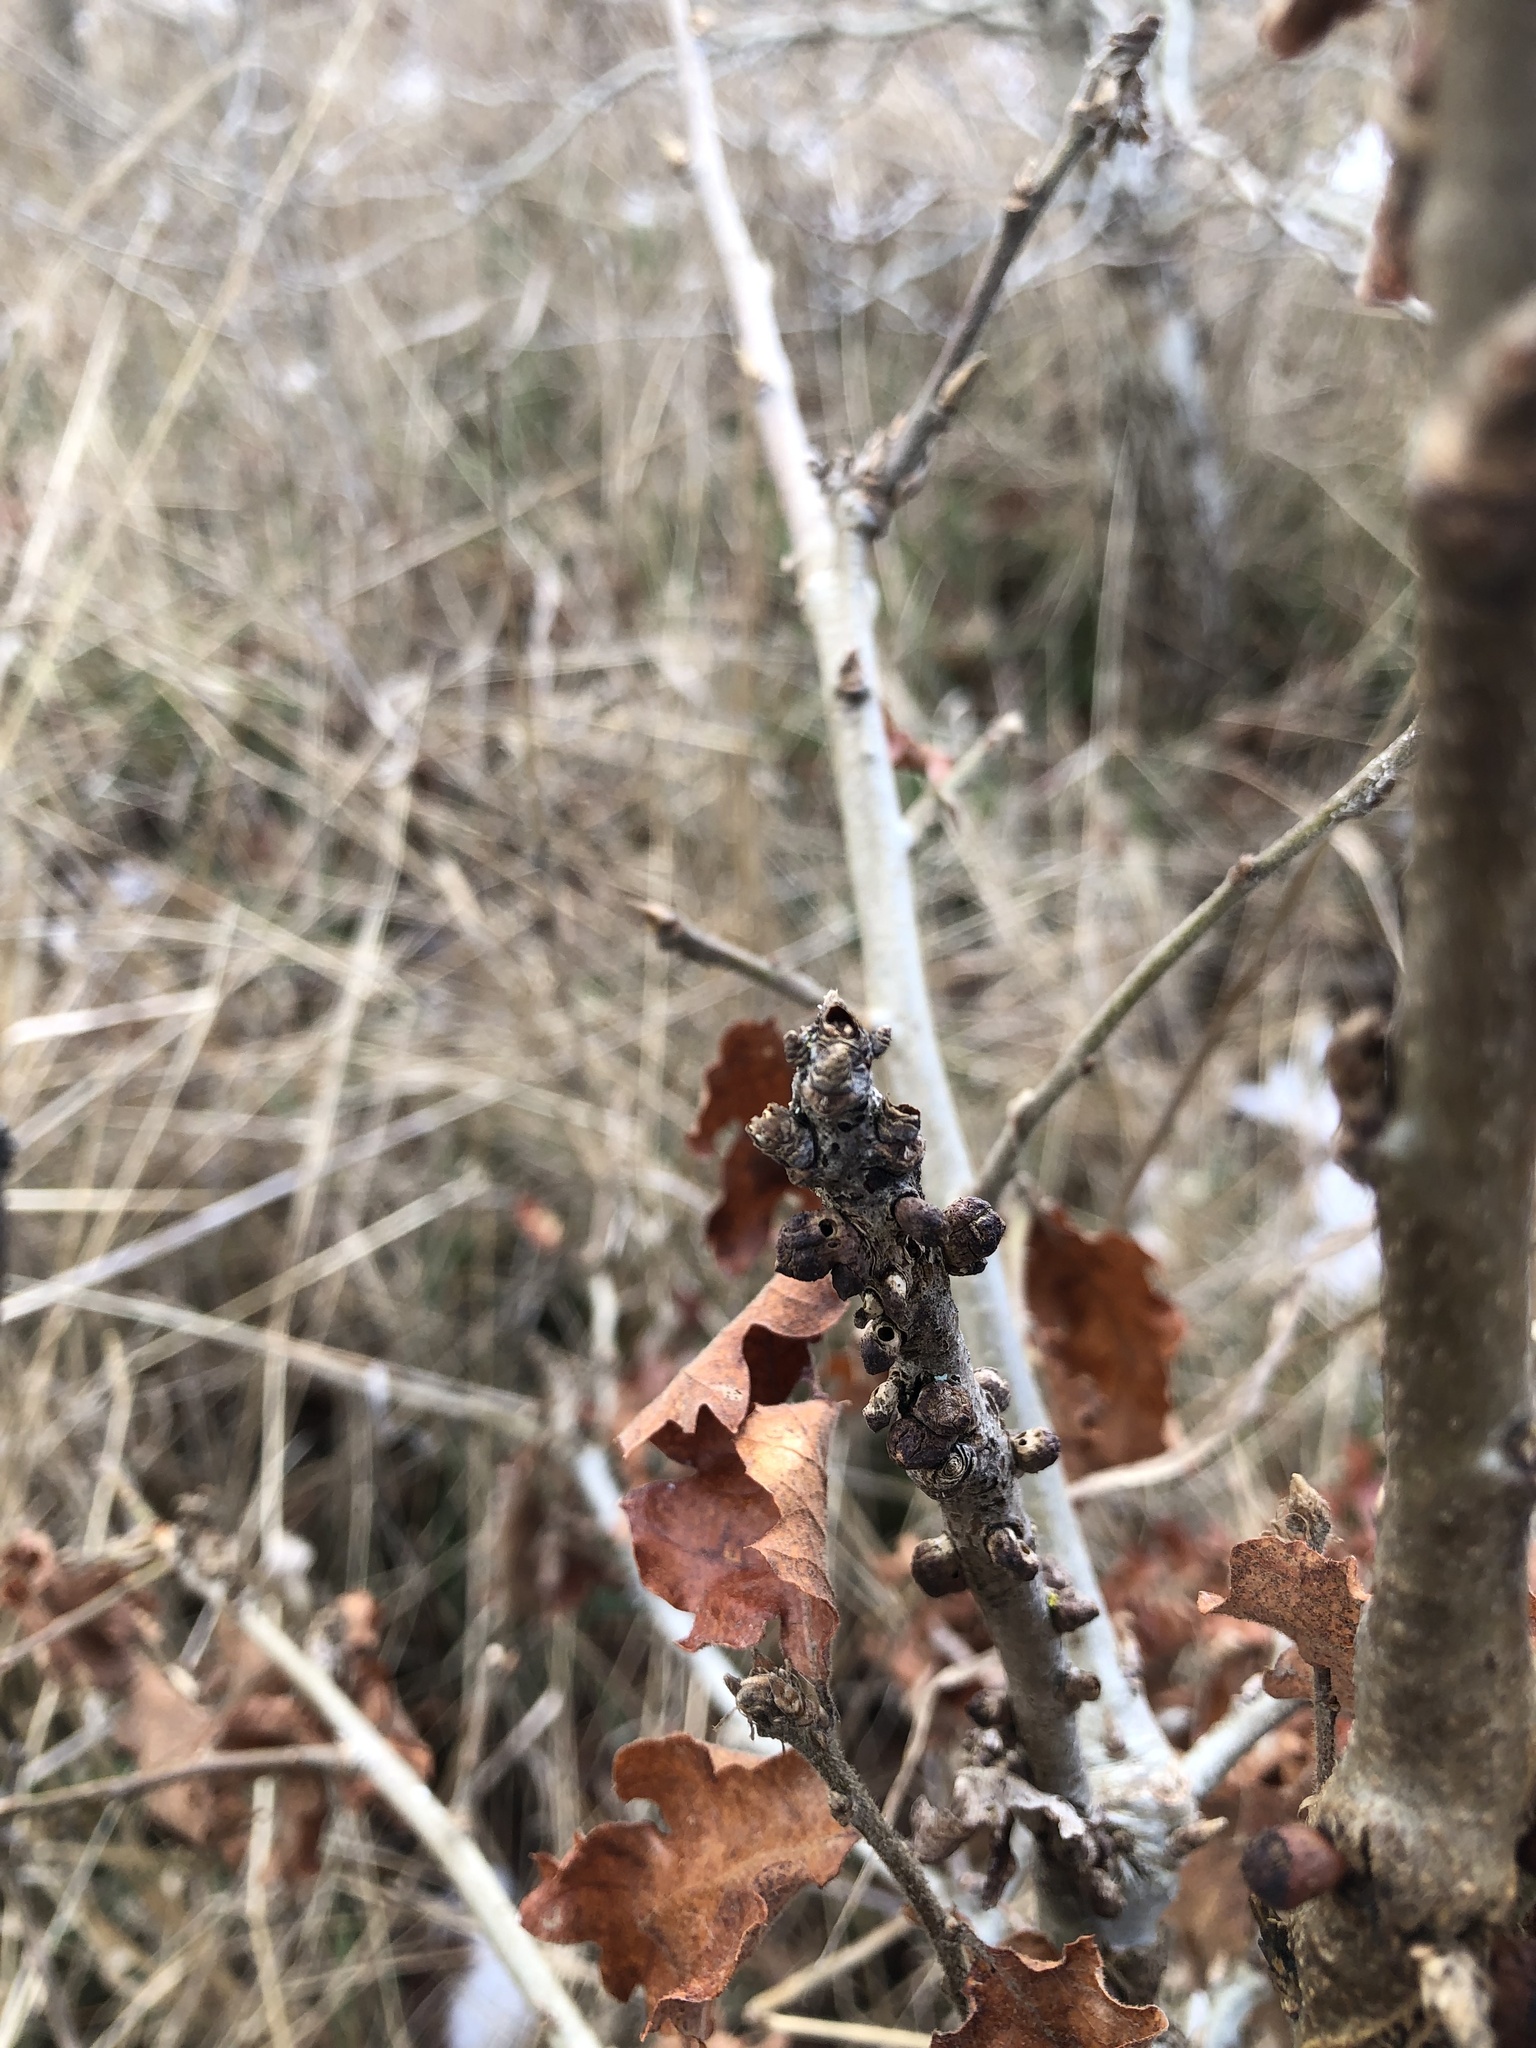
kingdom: Animalia
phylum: Arthropoda
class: Insecta
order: Hymenoptera
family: Cynipidae
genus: Disholcaspis
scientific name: Disholcaspis
